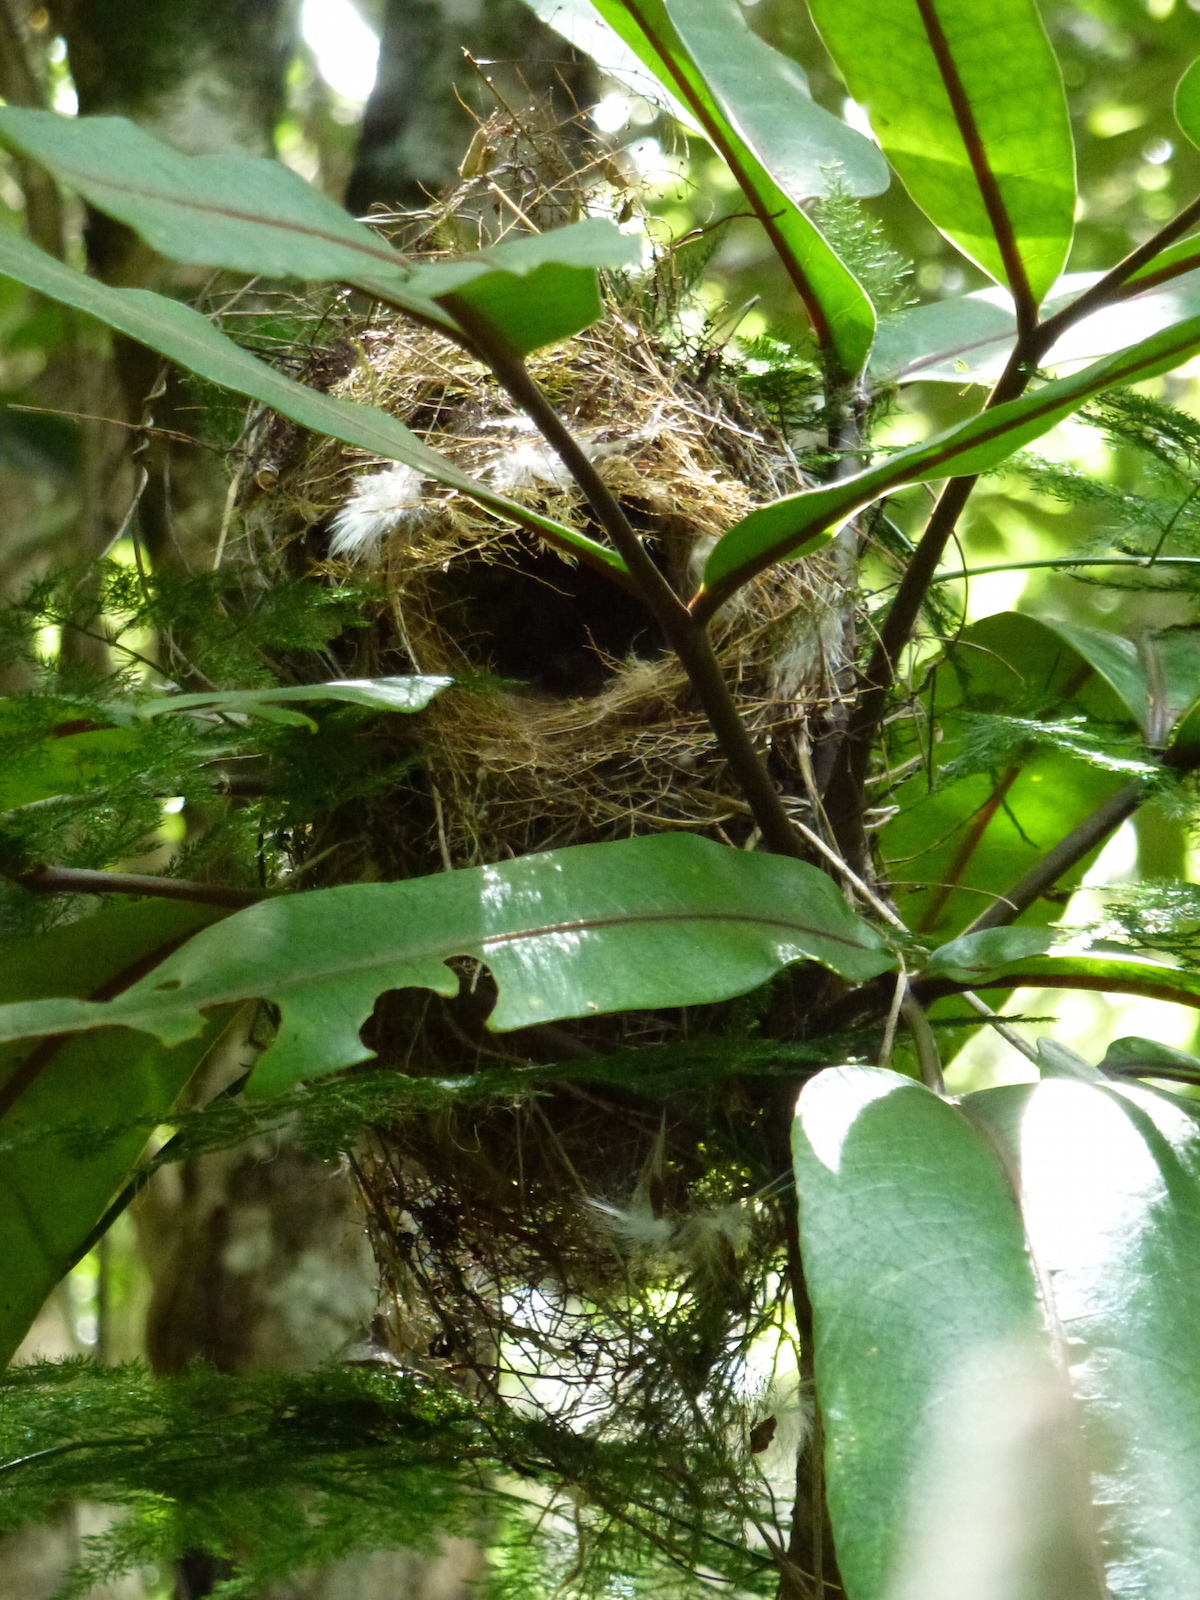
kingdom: Animalia
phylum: Chordata
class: Aves
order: Passeriformes
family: Ploceidae
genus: Foudia
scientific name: Foudia rubra
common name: Mauritius fody
